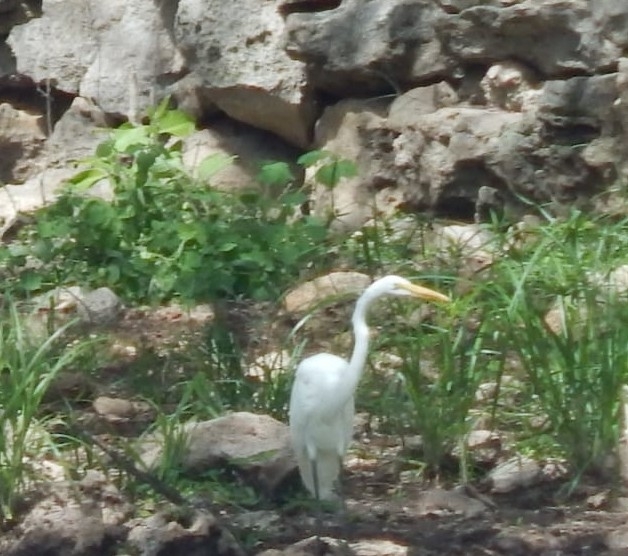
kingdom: Animalia
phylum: Chordata
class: Aves
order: Pelecaniformes
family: Ardeidae
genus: Ardea
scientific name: Ardea alba
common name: Great egret
